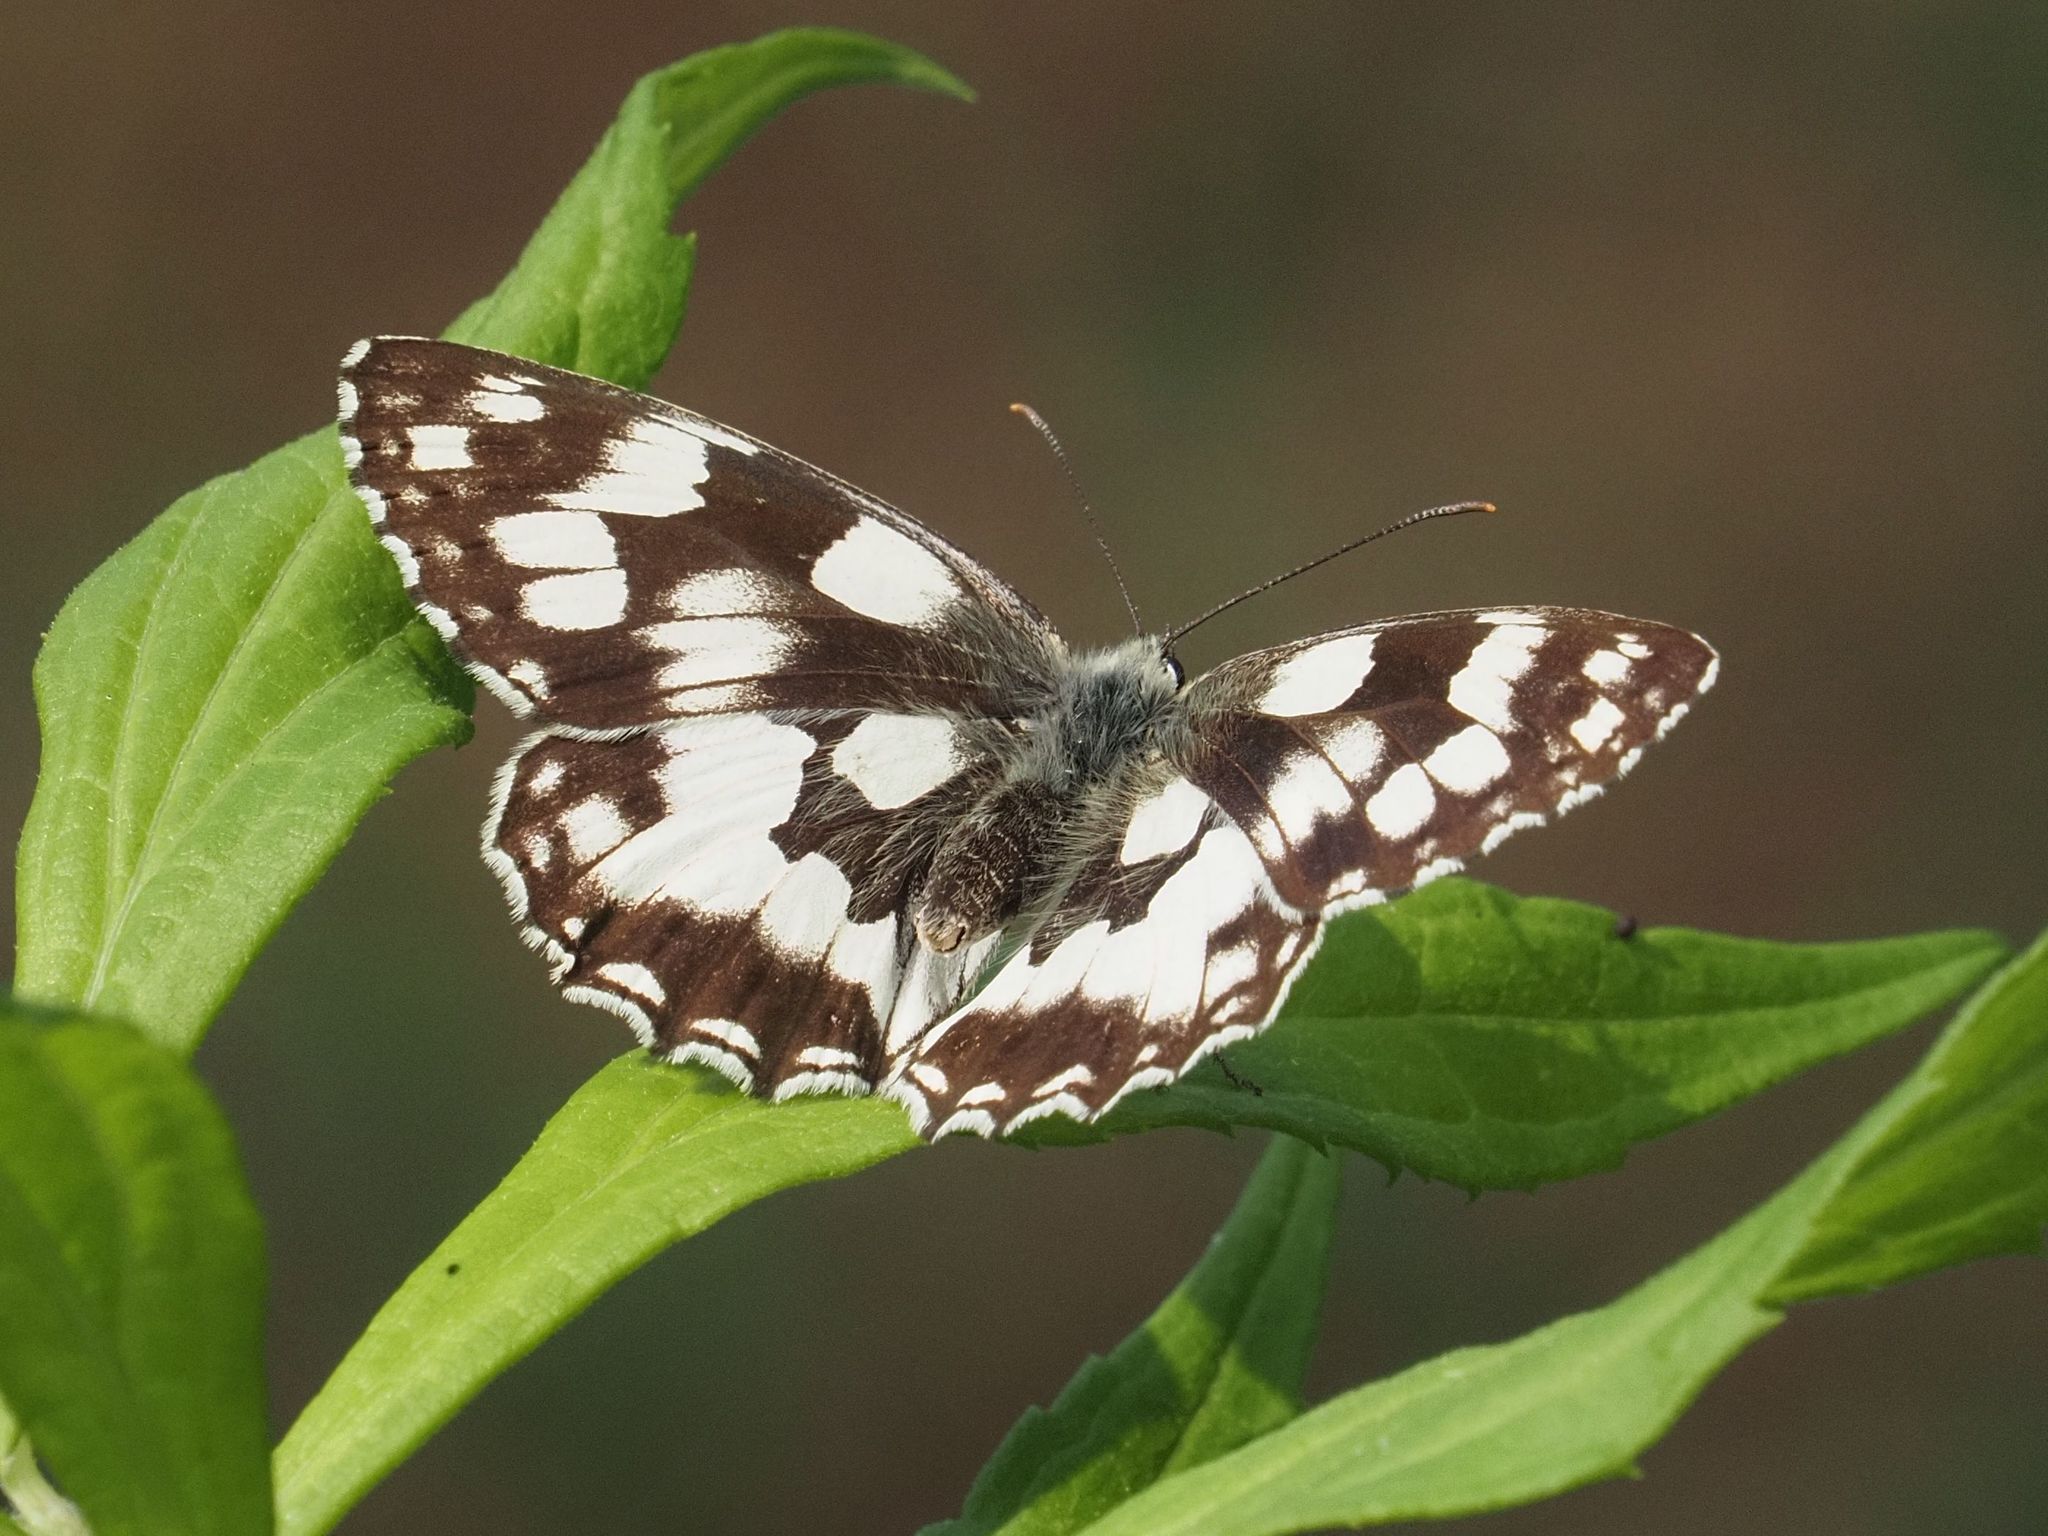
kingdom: Animalia
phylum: Arthropoda
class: Insecta
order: Lepidoptera
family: Nymphalidae
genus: Melanargia
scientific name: Melanargia galathea
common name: Marbled white
